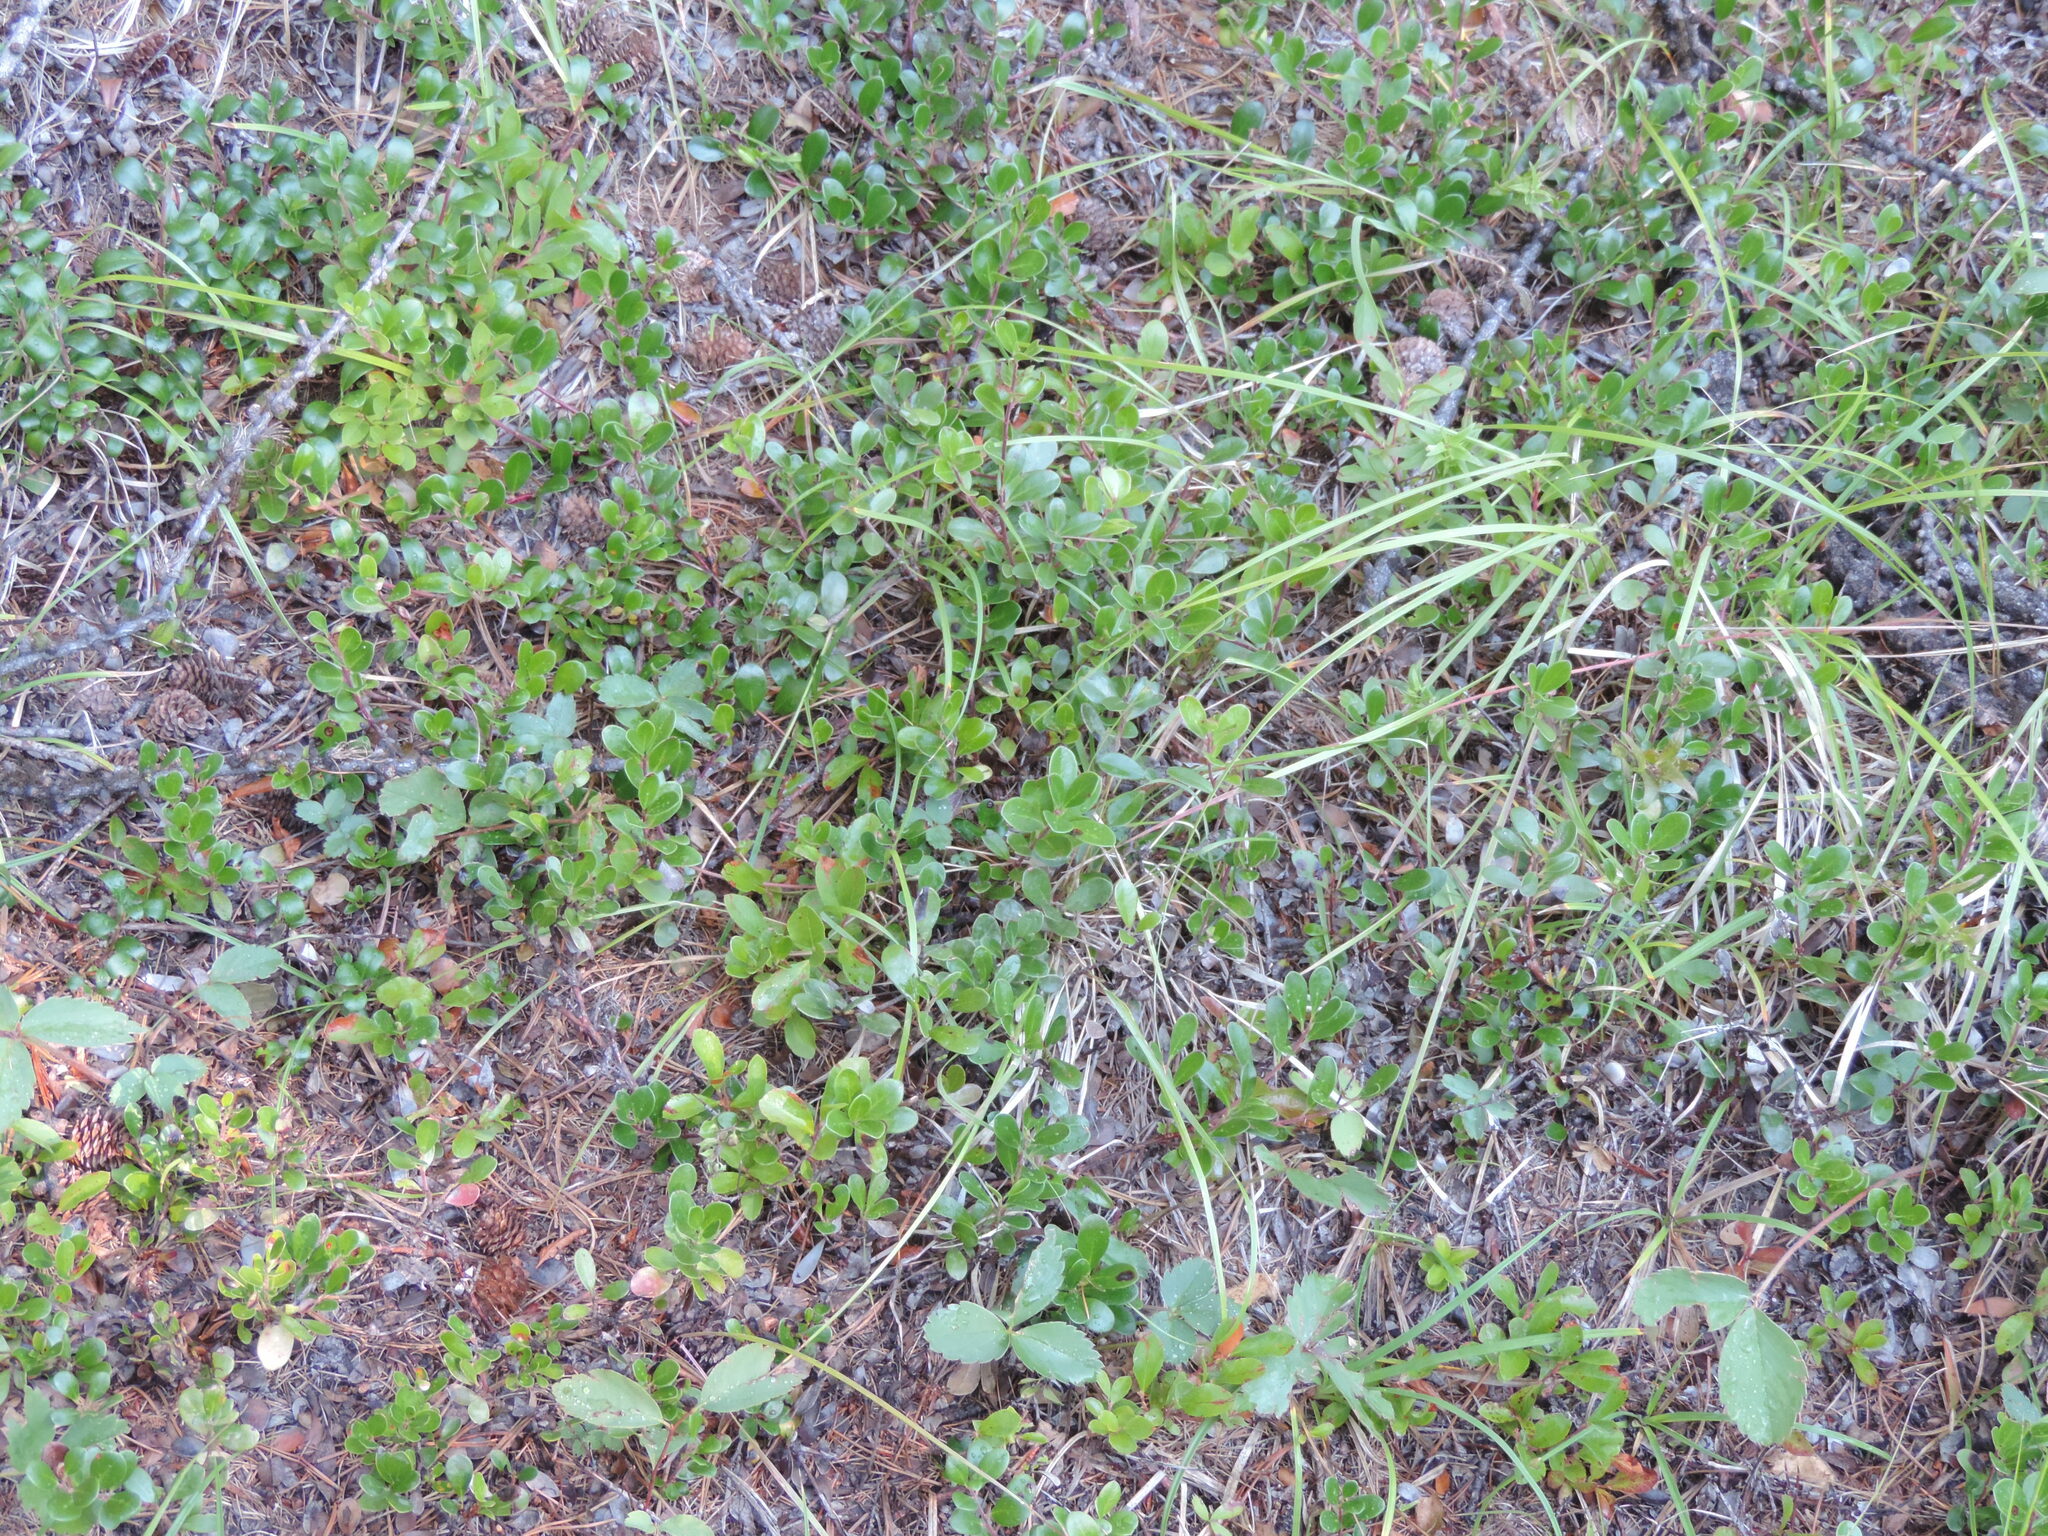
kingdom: Plantae
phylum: Tracheophyta
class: Magnoliopsida
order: Ericales
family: Ericaceae
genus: Arctostaphylos
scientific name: Arctostaphylos uva-ursi
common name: Bearberry
